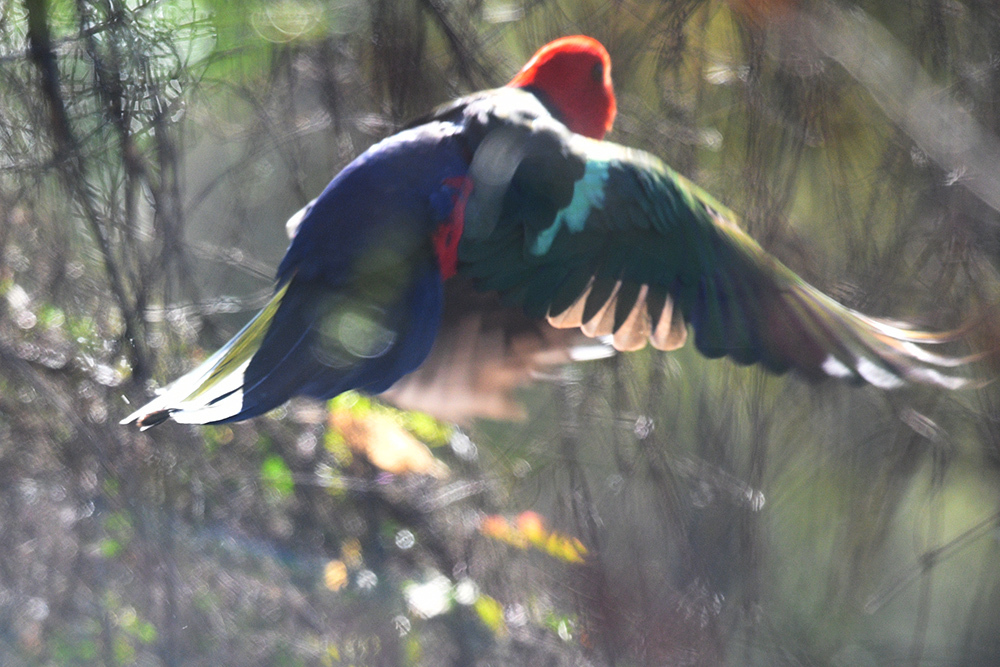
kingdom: Animalia
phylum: Chordata
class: Aves
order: Psittaciformes
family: Psittacidae
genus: Alisterus
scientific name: Alisterus scapularis
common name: Australian king parrot
